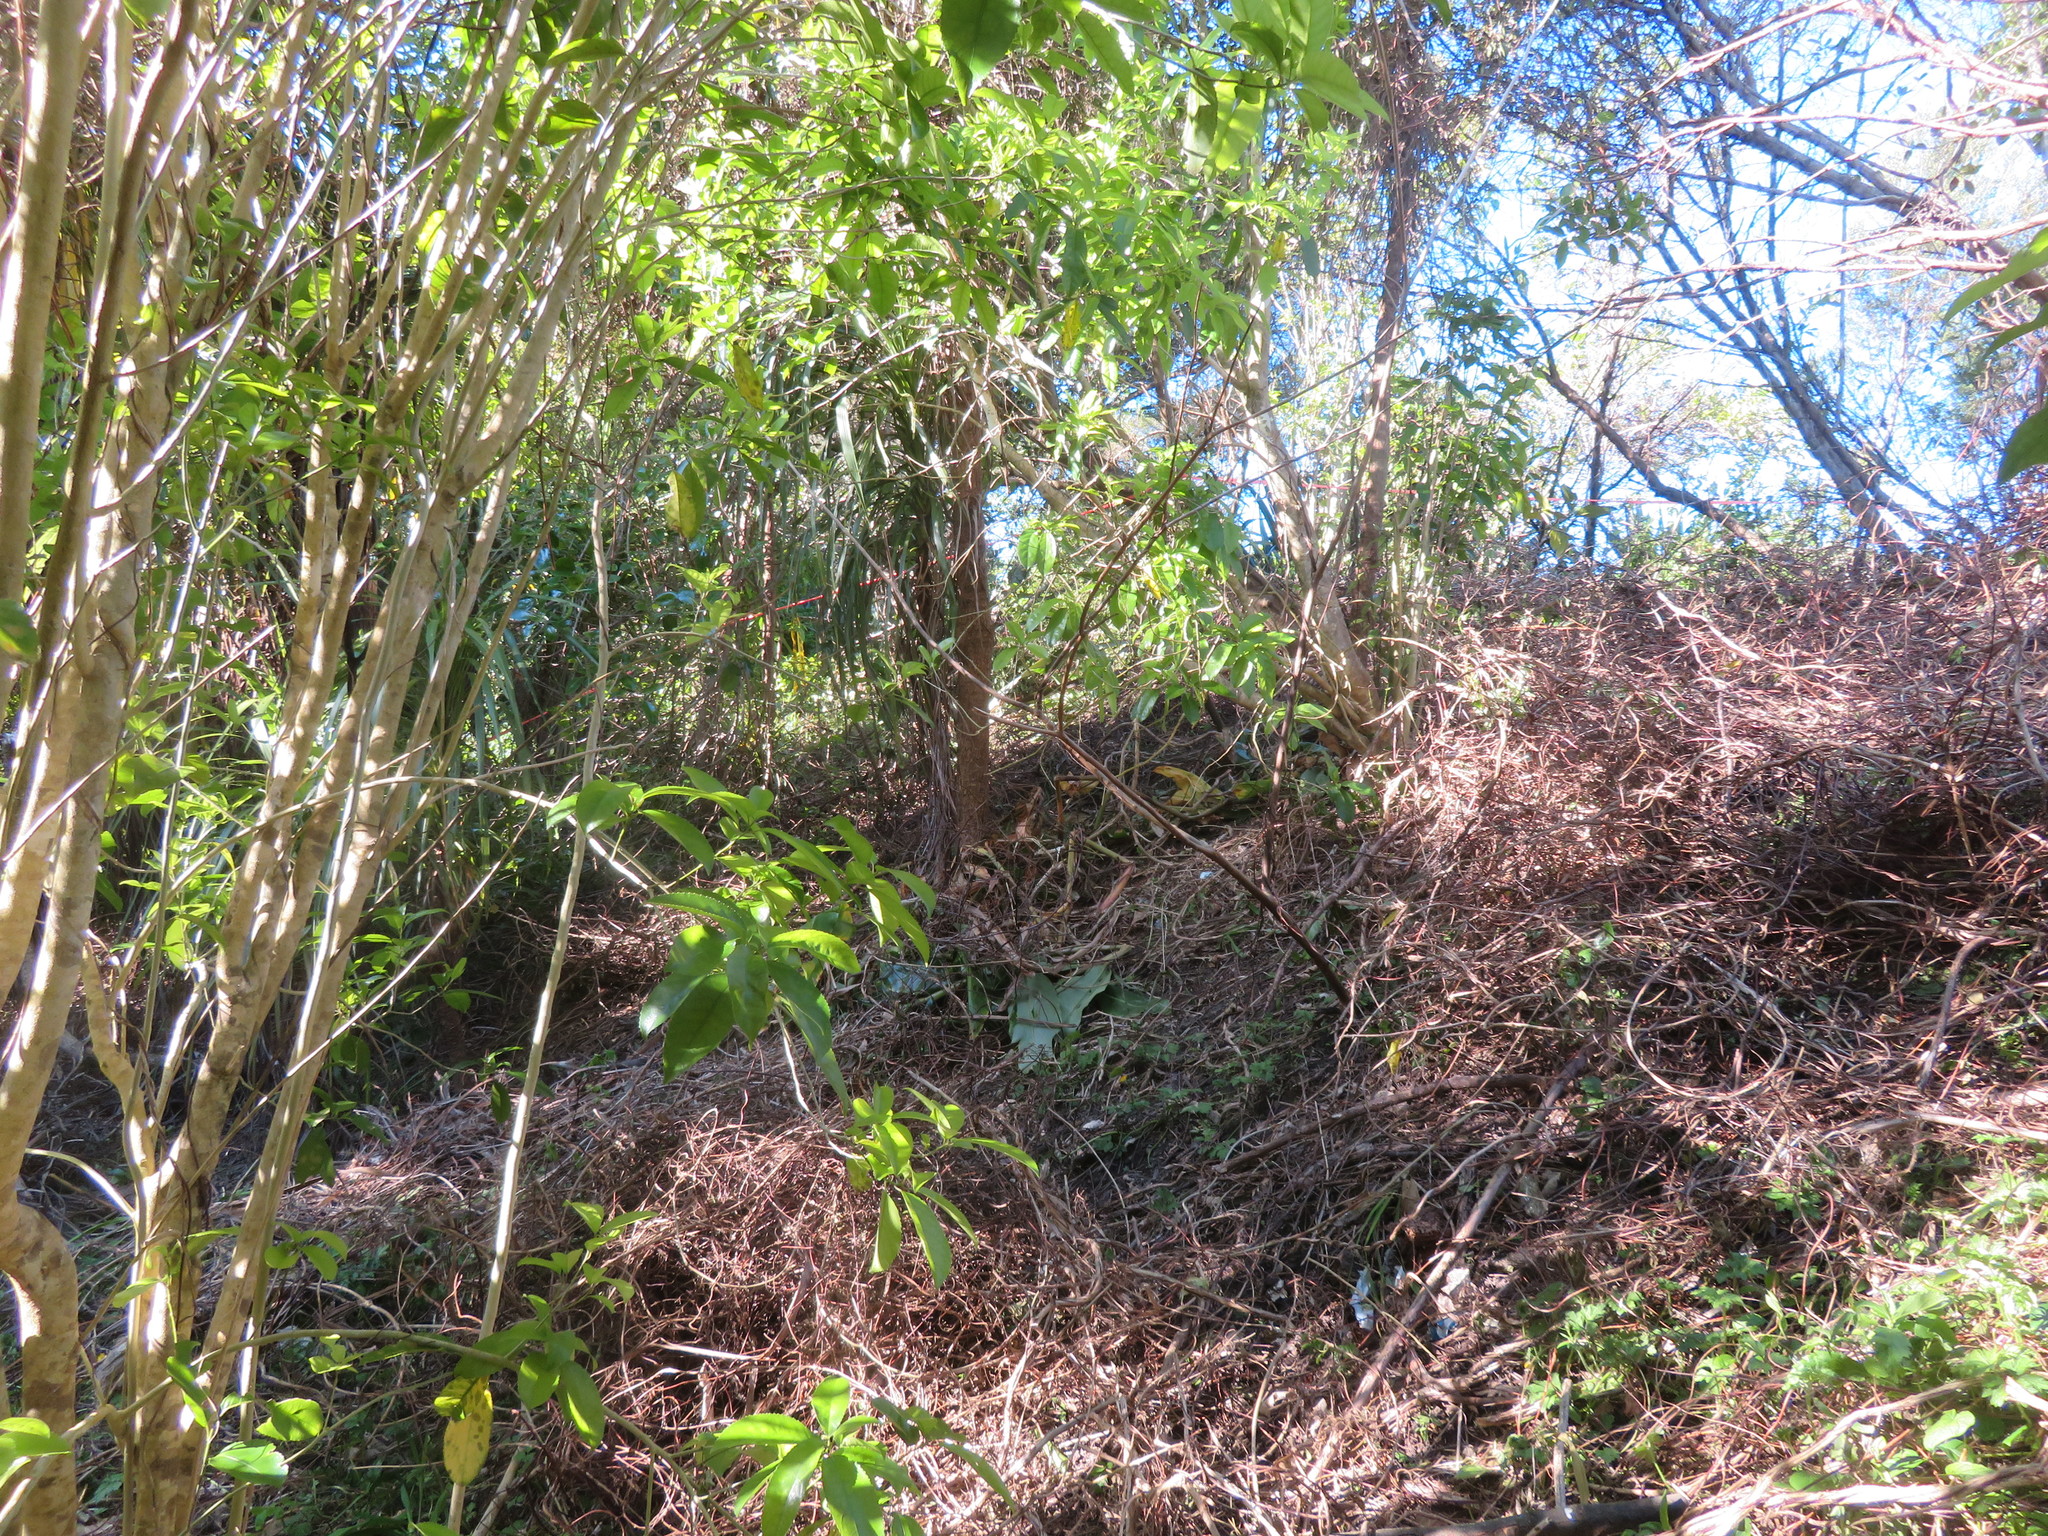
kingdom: Plantae
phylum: Tracheophyta
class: Magnoliopsida
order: Malpighiales
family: Violaceae
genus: Melicytus
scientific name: Melicytus ramiflorus
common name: Mahoe
